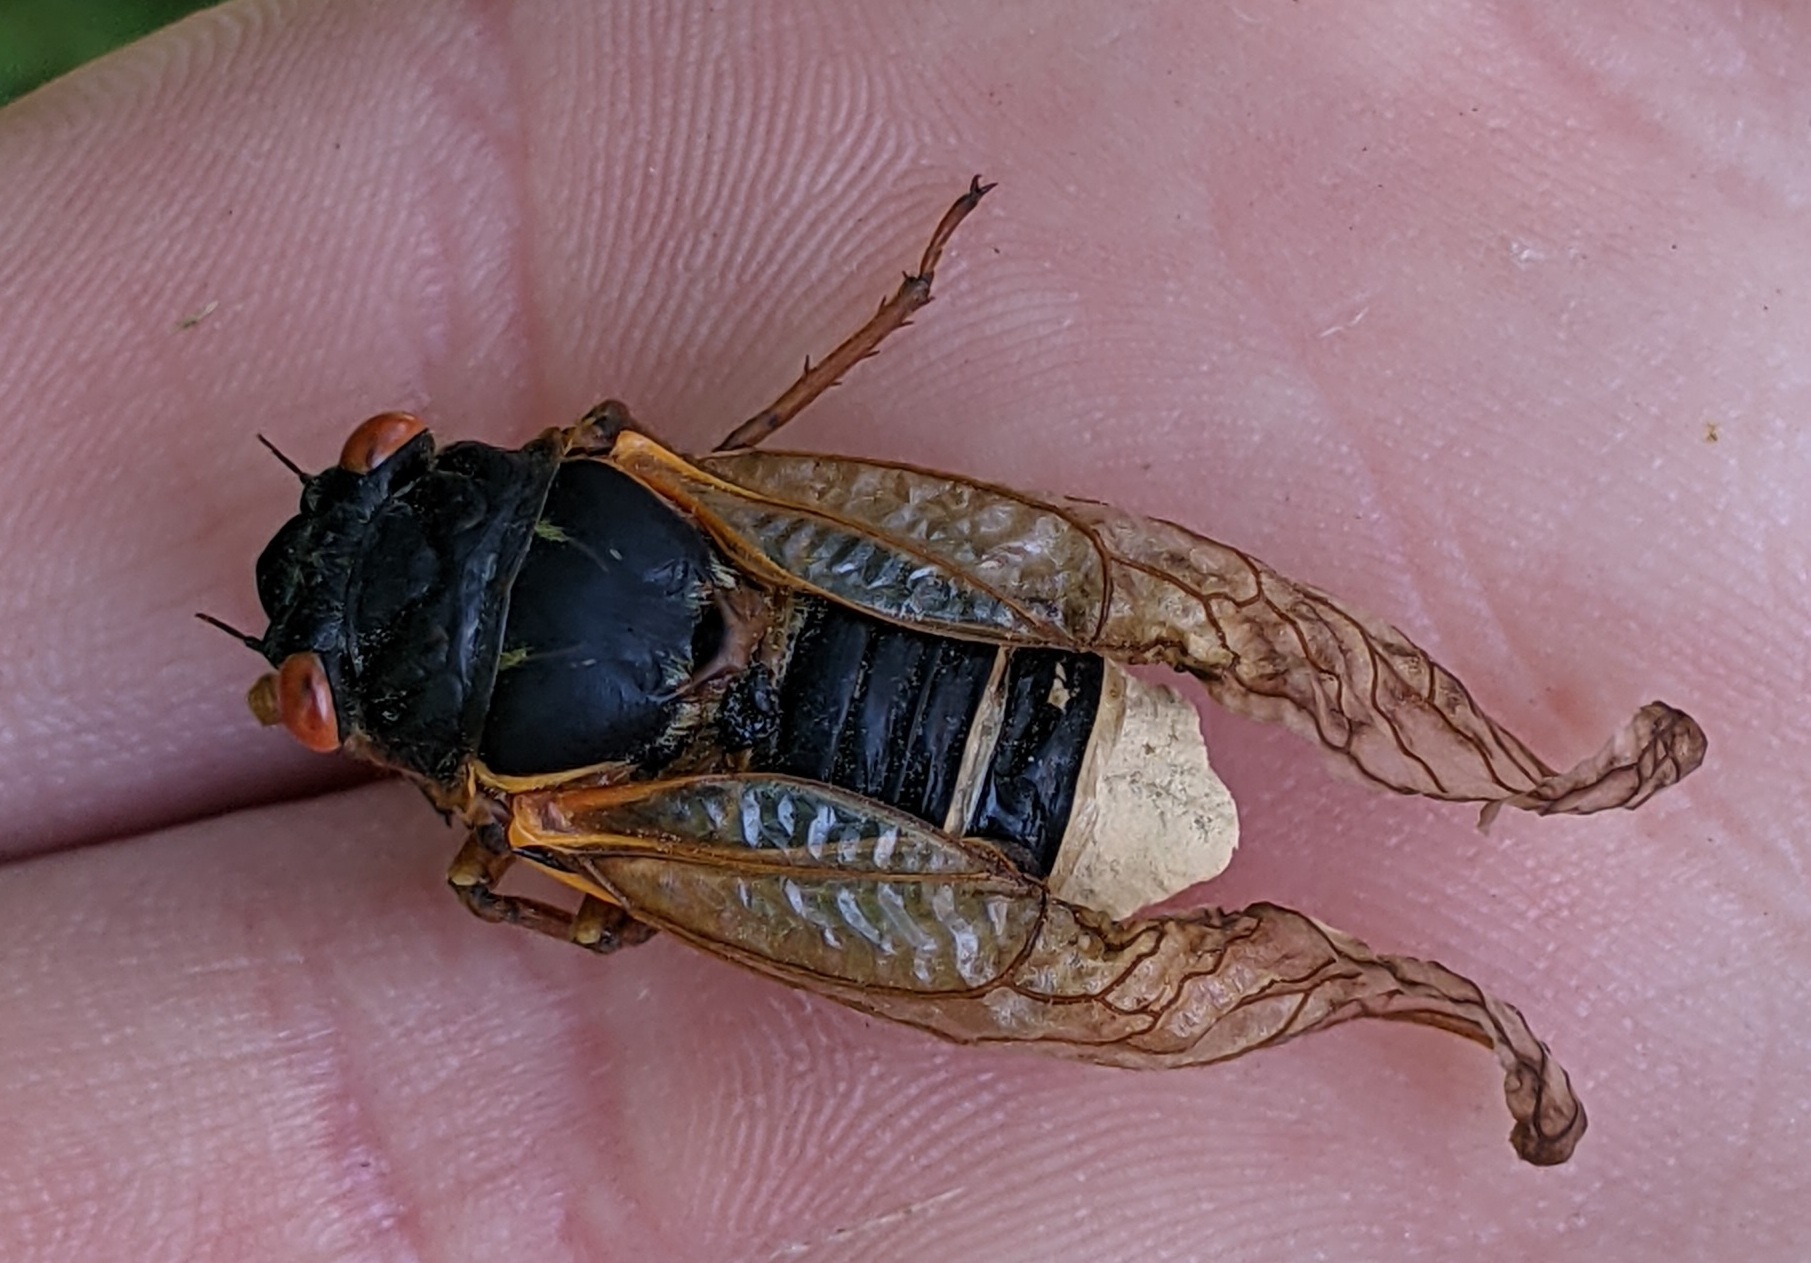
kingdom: Animalia
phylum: Arthropoda
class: Insecta
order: Hemiptera
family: Cicadidae
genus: Magicicada
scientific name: Magicicada septendecim
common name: Periodical cicada
